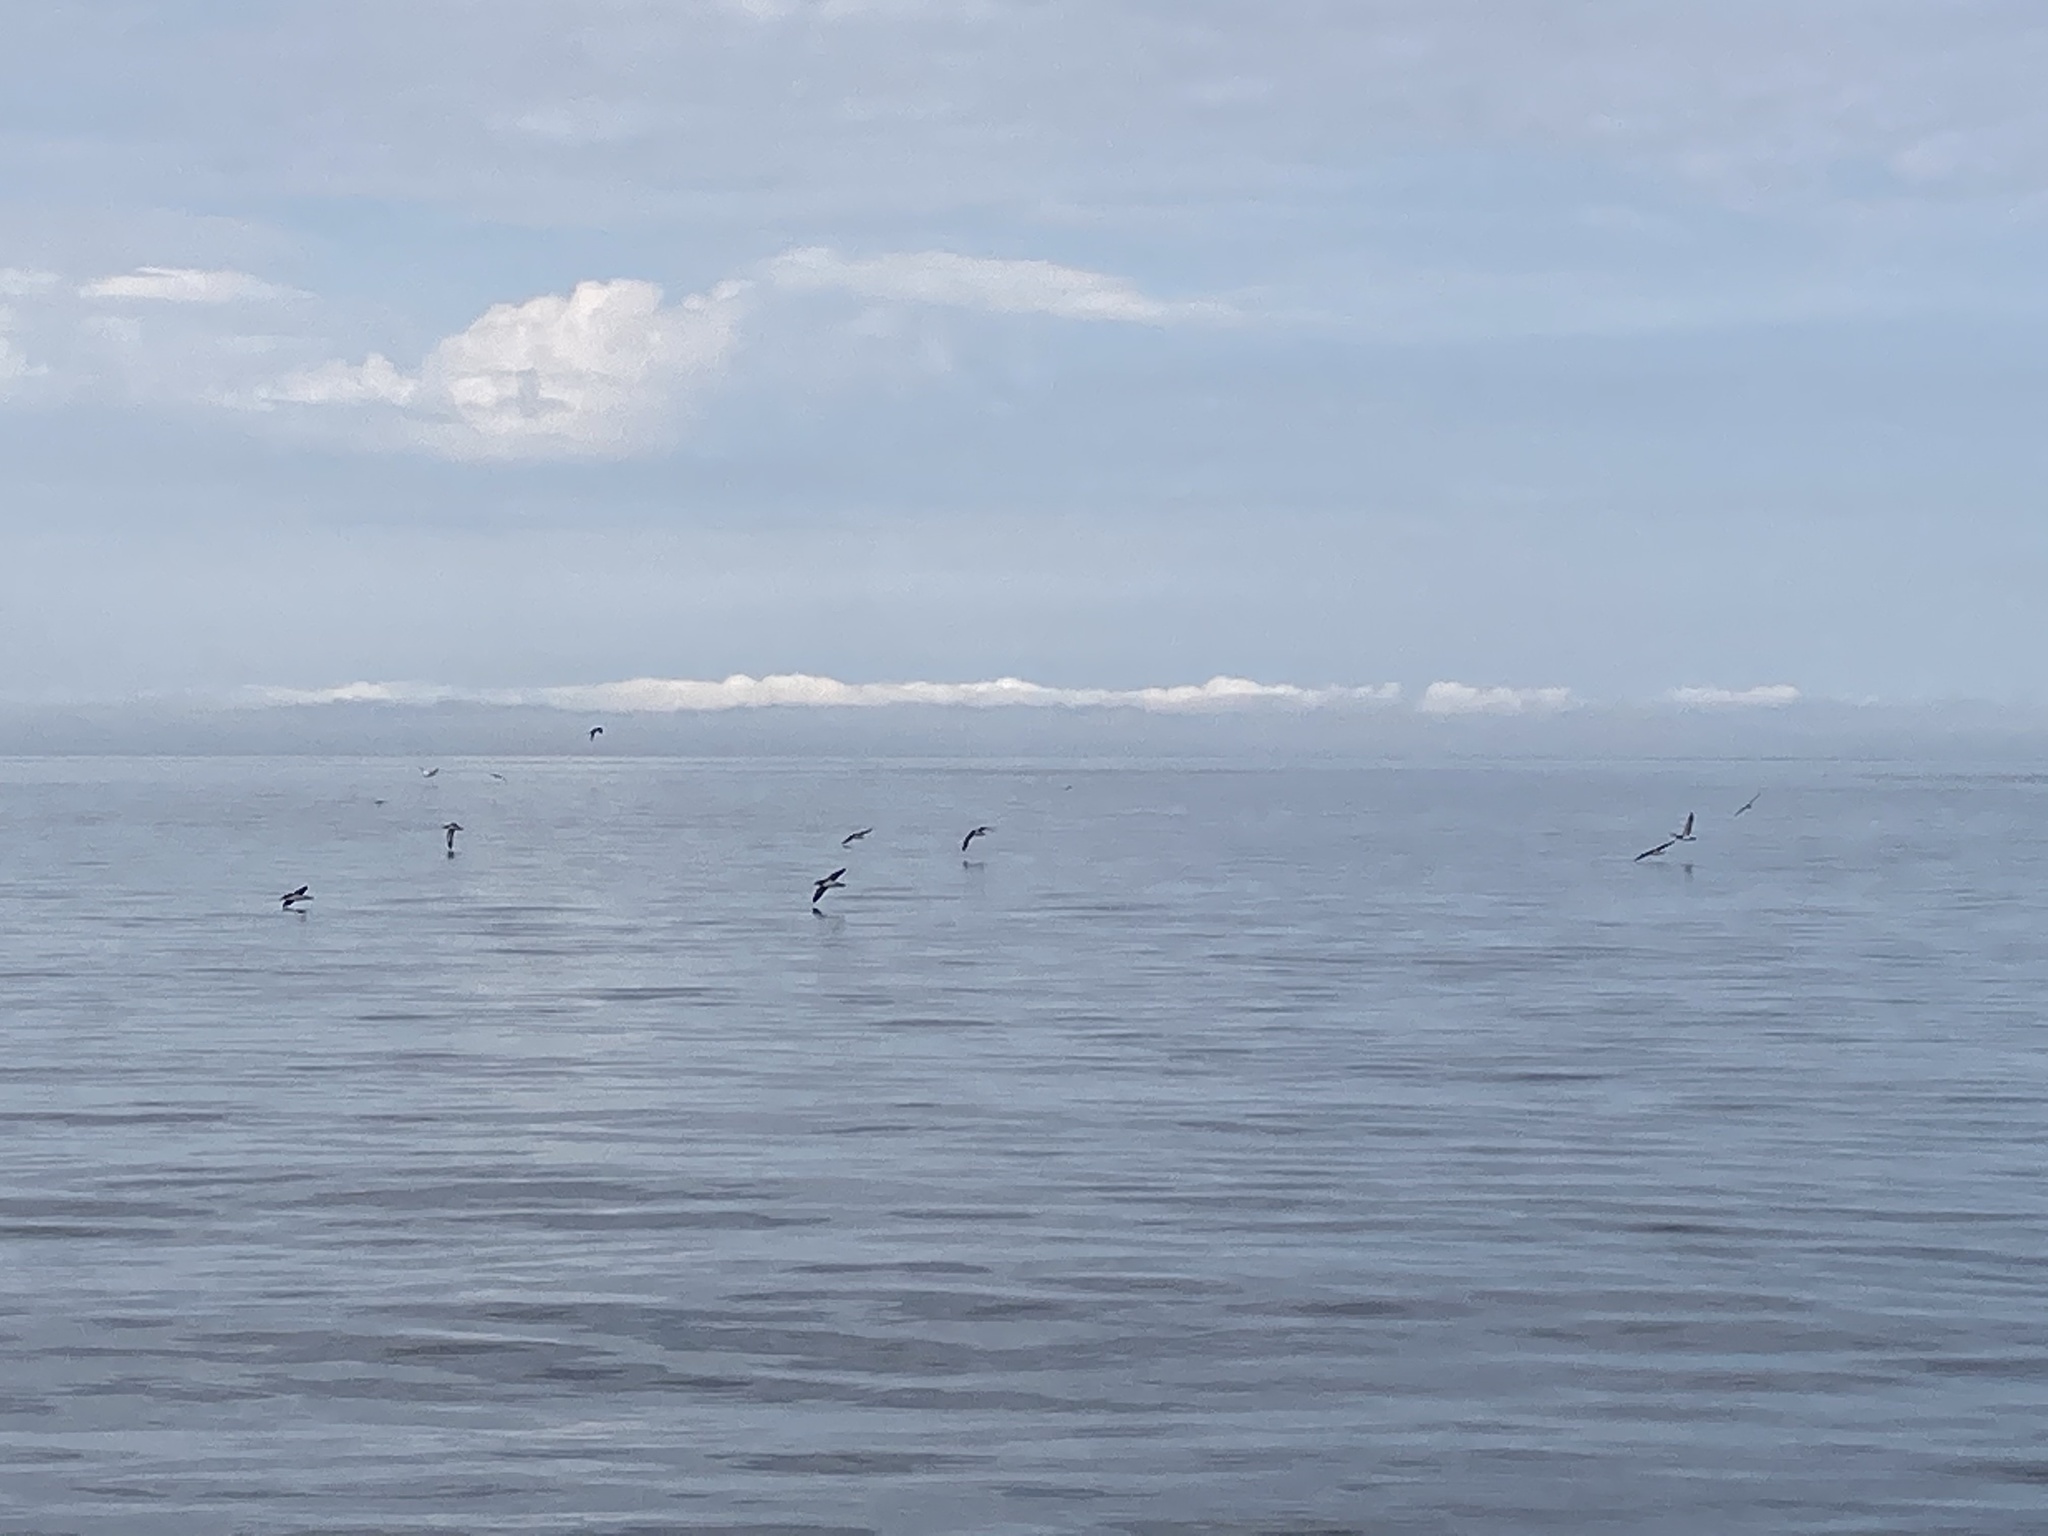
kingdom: Animalia
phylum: Chordata
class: Aves
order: Procellariiformes
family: Procellariidae
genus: Puffinus
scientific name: Puffinus puffinus
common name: Manx shearwater
